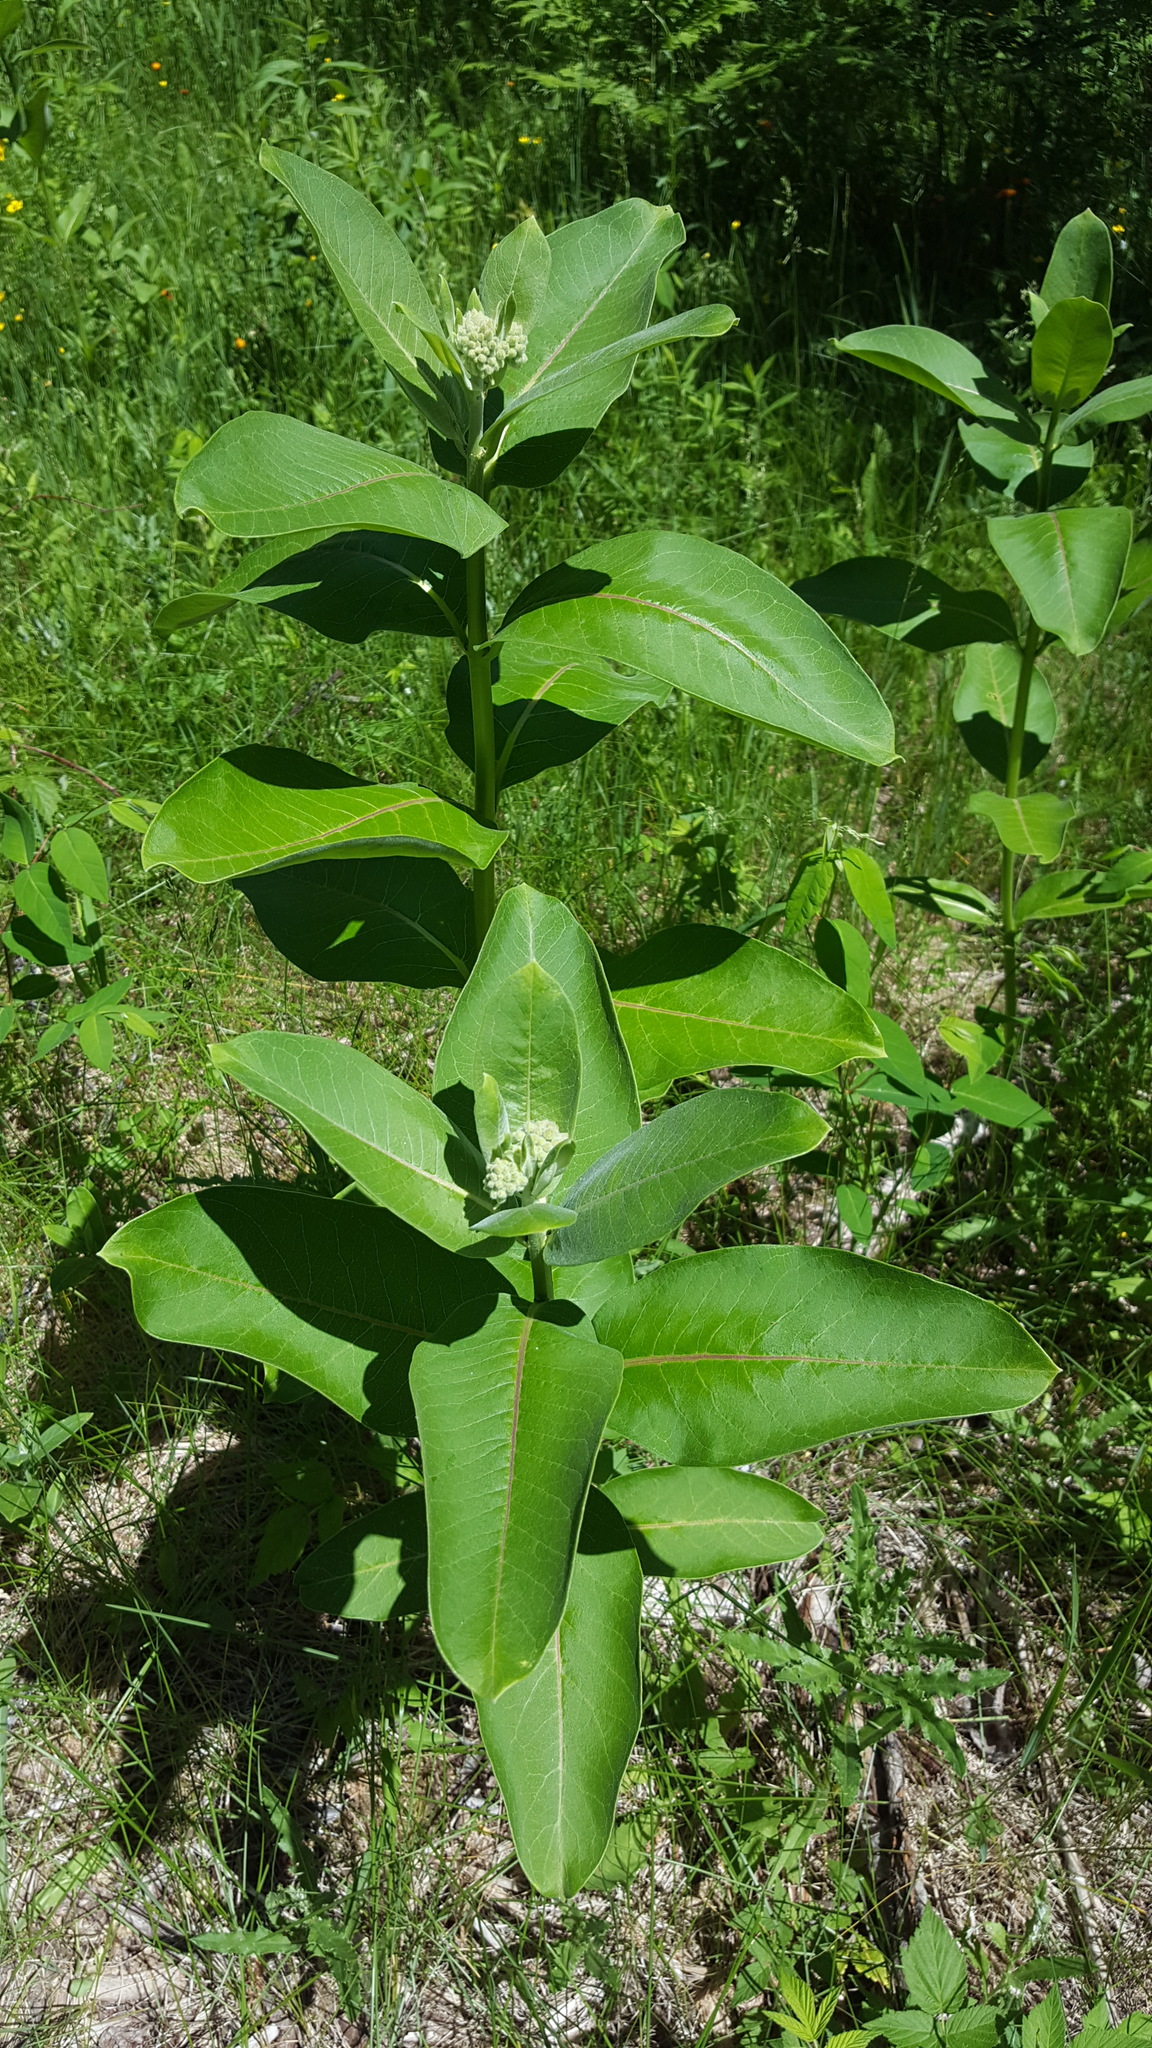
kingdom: Plantae
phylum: Tracheophyta
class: Magnoliopsida
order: Gentianales
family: Apocynaceae
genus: Asclepias
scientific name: Asclepias syriaca
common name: Common milkweed
